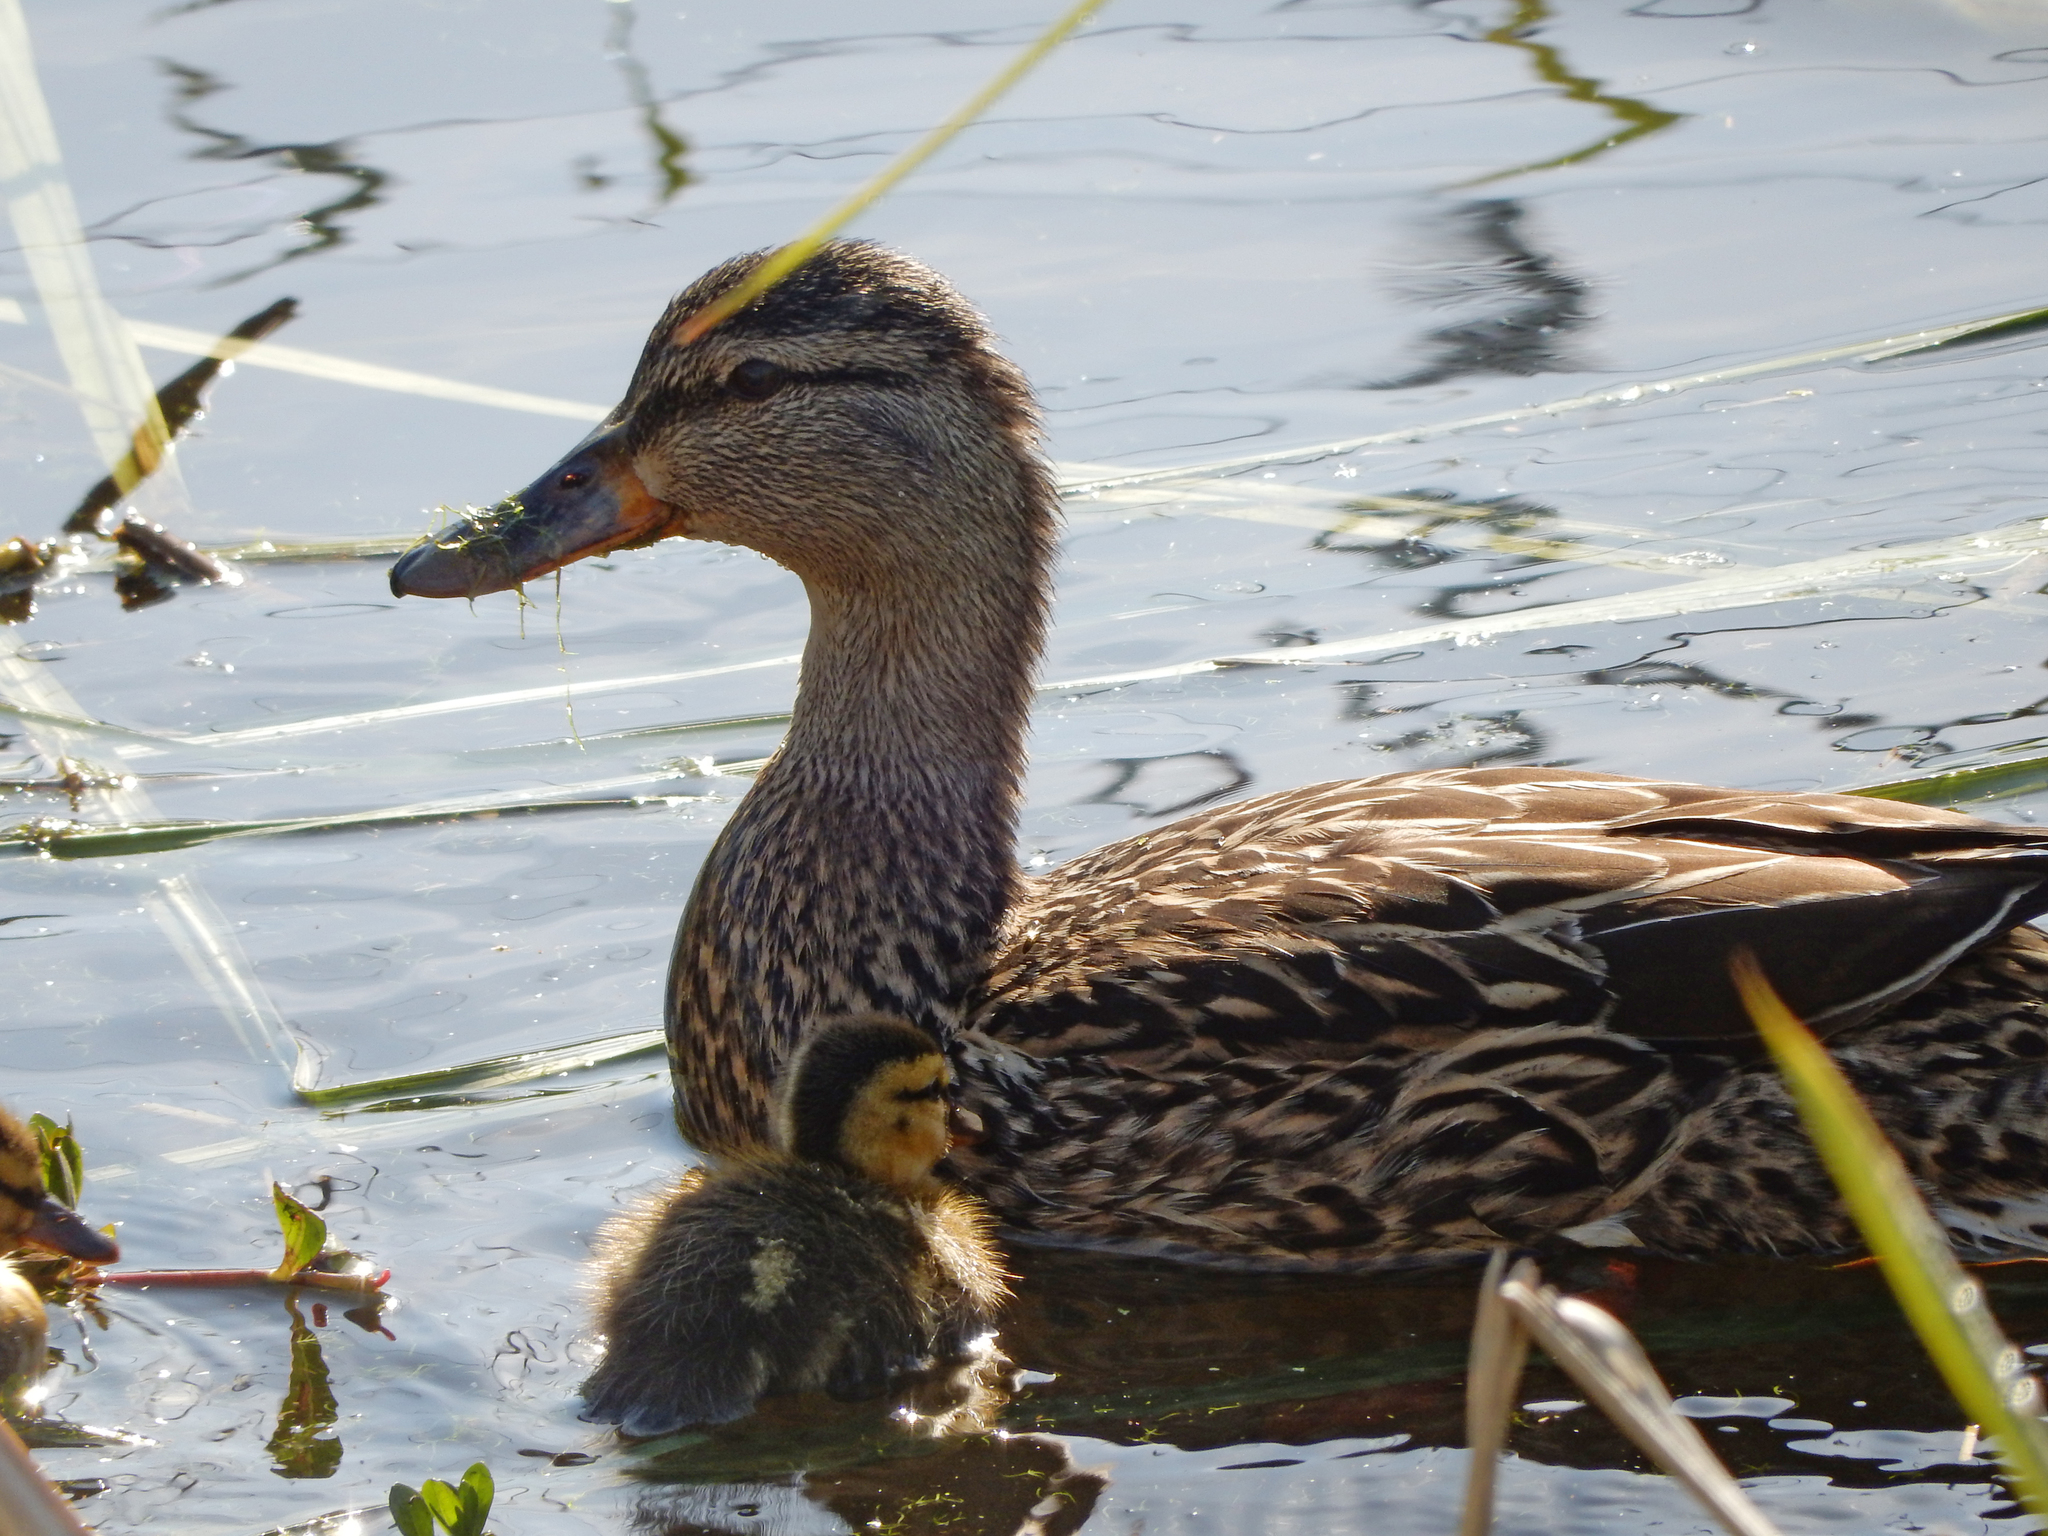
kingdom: Animalia
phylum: Chordata
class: Aves
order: Anseriformes
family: Anatidae
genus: Anas
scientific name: Anas platyrhynchos
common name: Mallard
